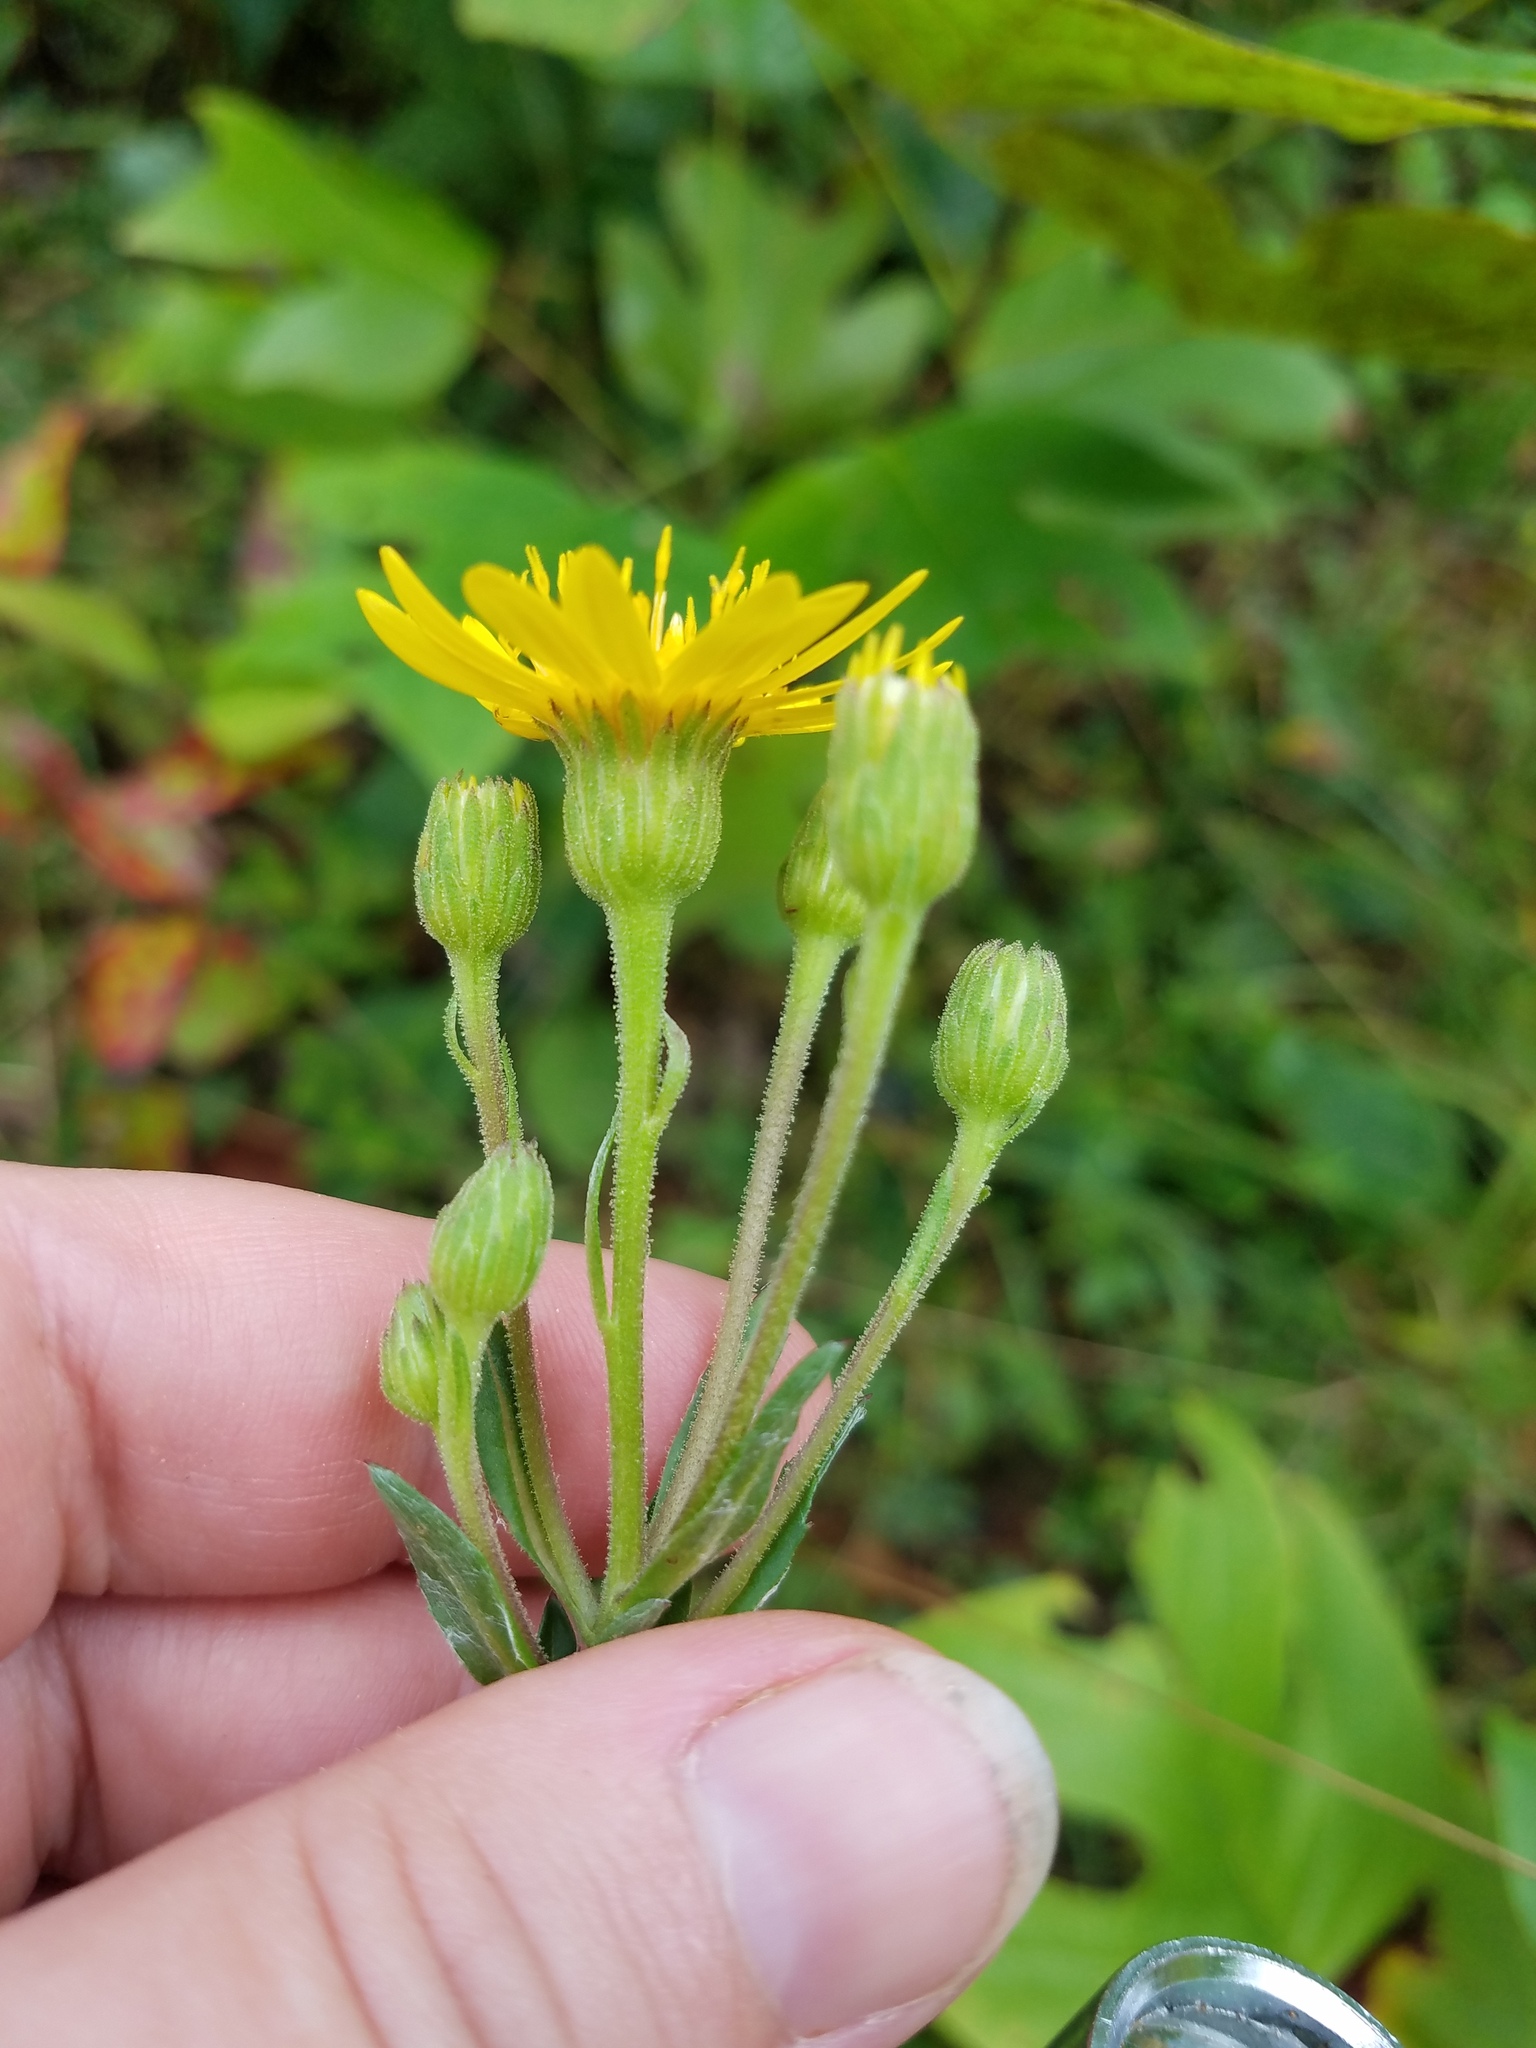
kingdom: Plantae
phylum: Tracheophyta
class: Magnoliopsida
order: Asterales
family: Asteraceae
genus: Chrysopsis
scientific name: Chrysopsis mariana
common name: Maryland golden-aster
